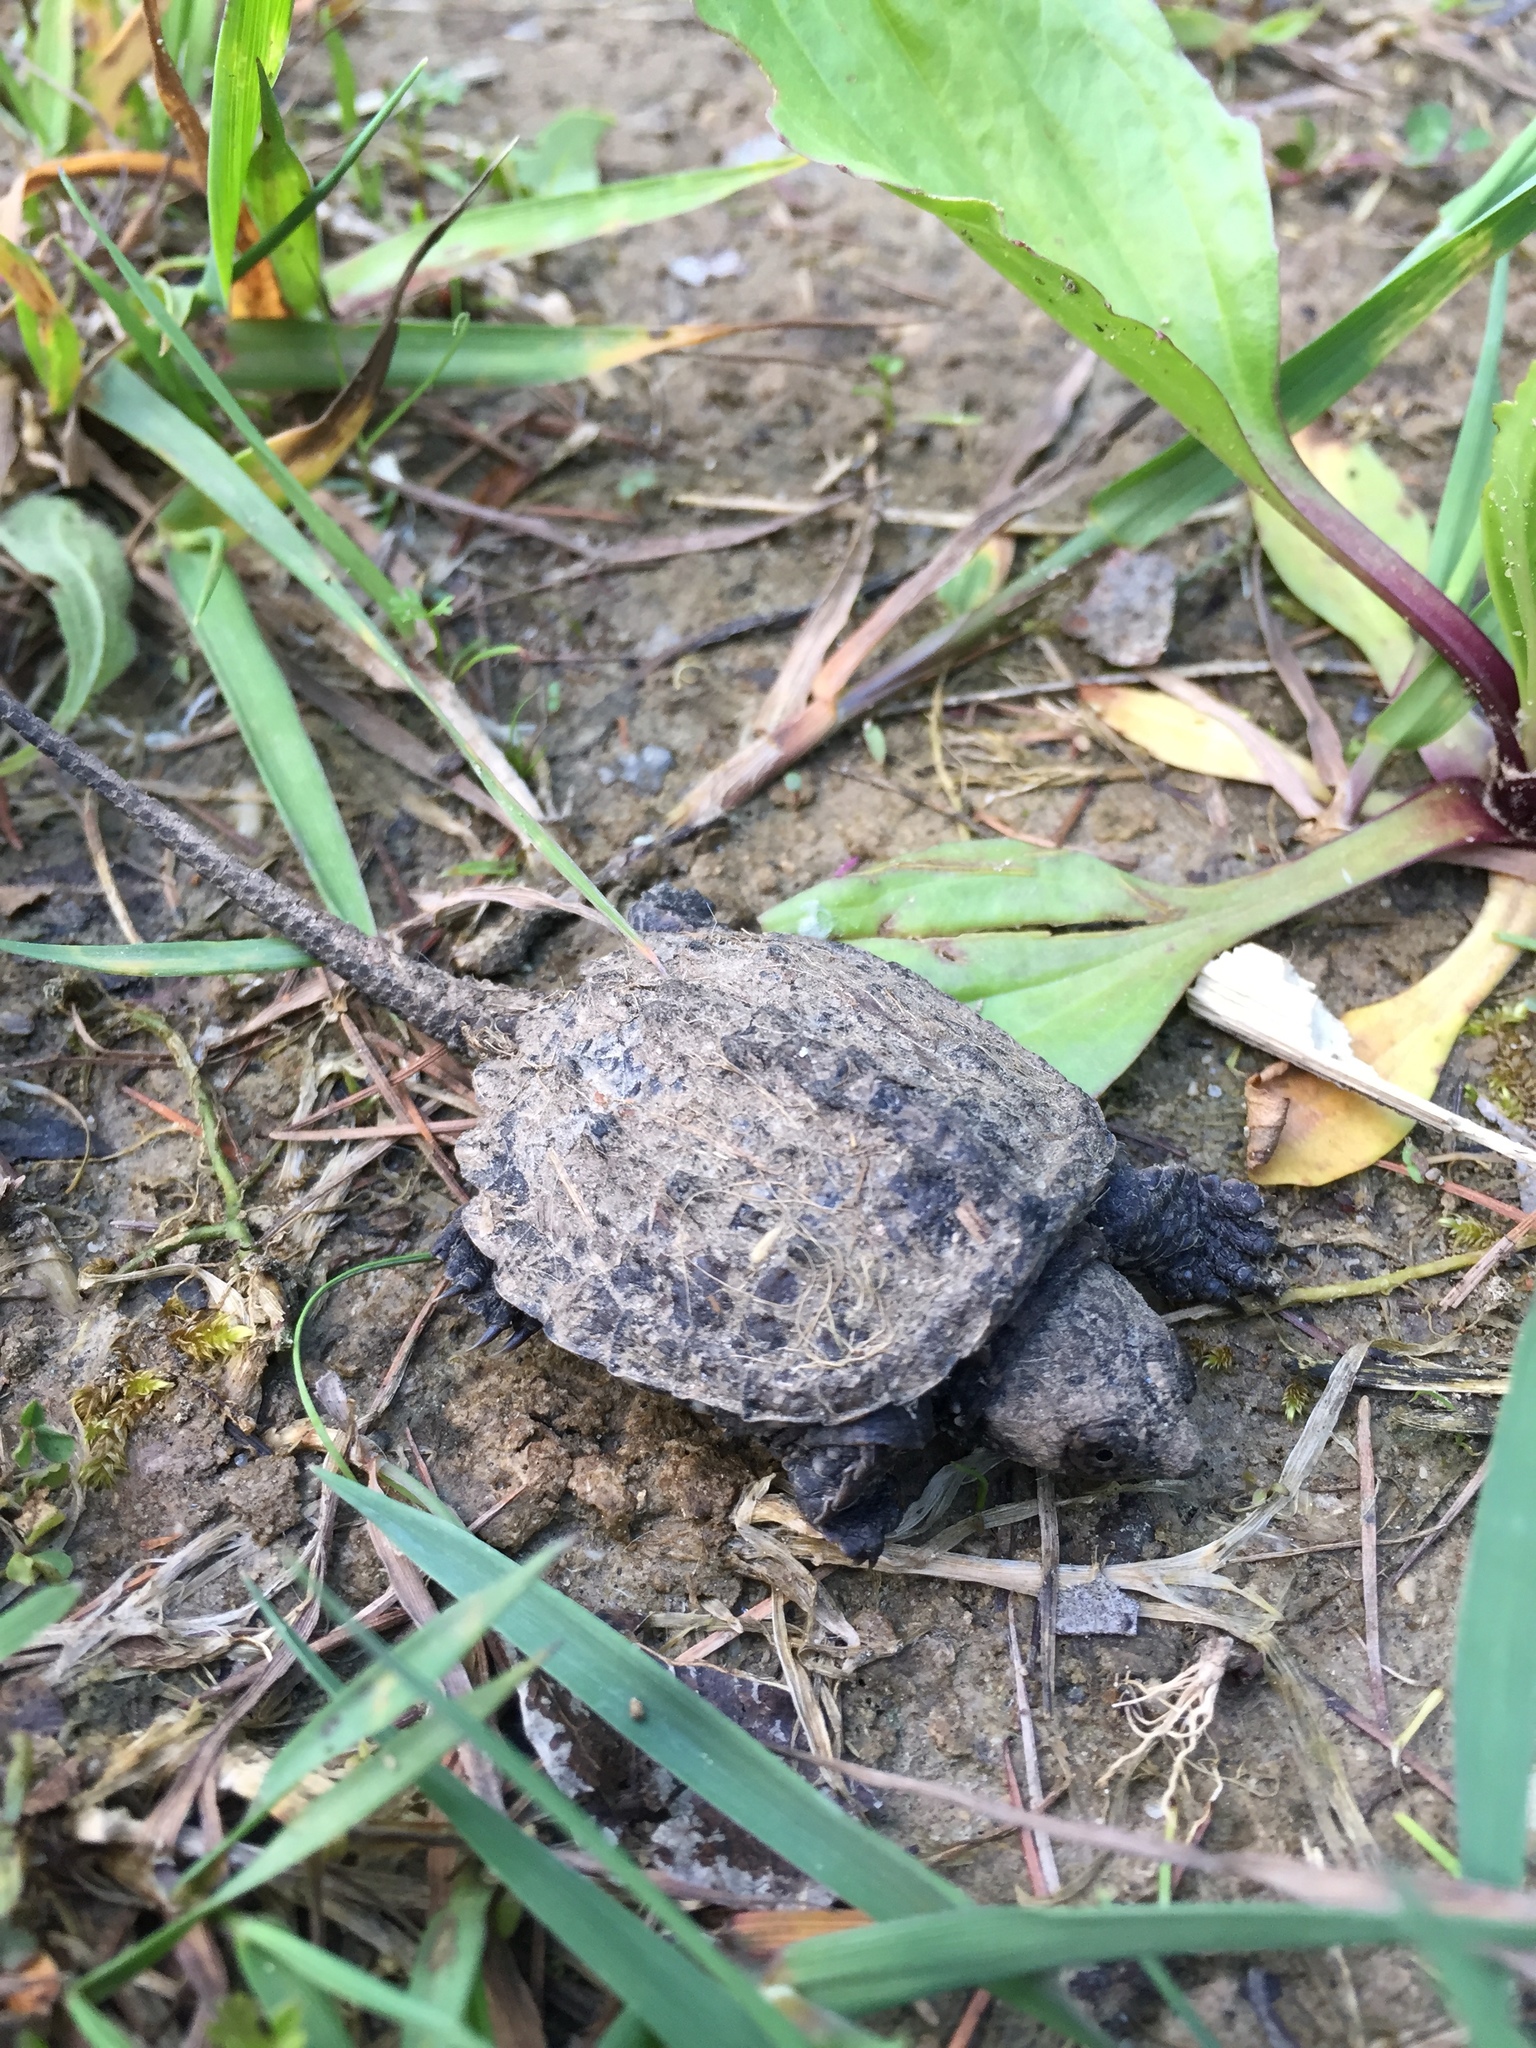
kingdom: Animalia
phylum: Chordata
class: Testudines
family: Chelydridae
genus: Chelydra
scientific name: Chelydra serpentina
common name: Common snapping turtle
